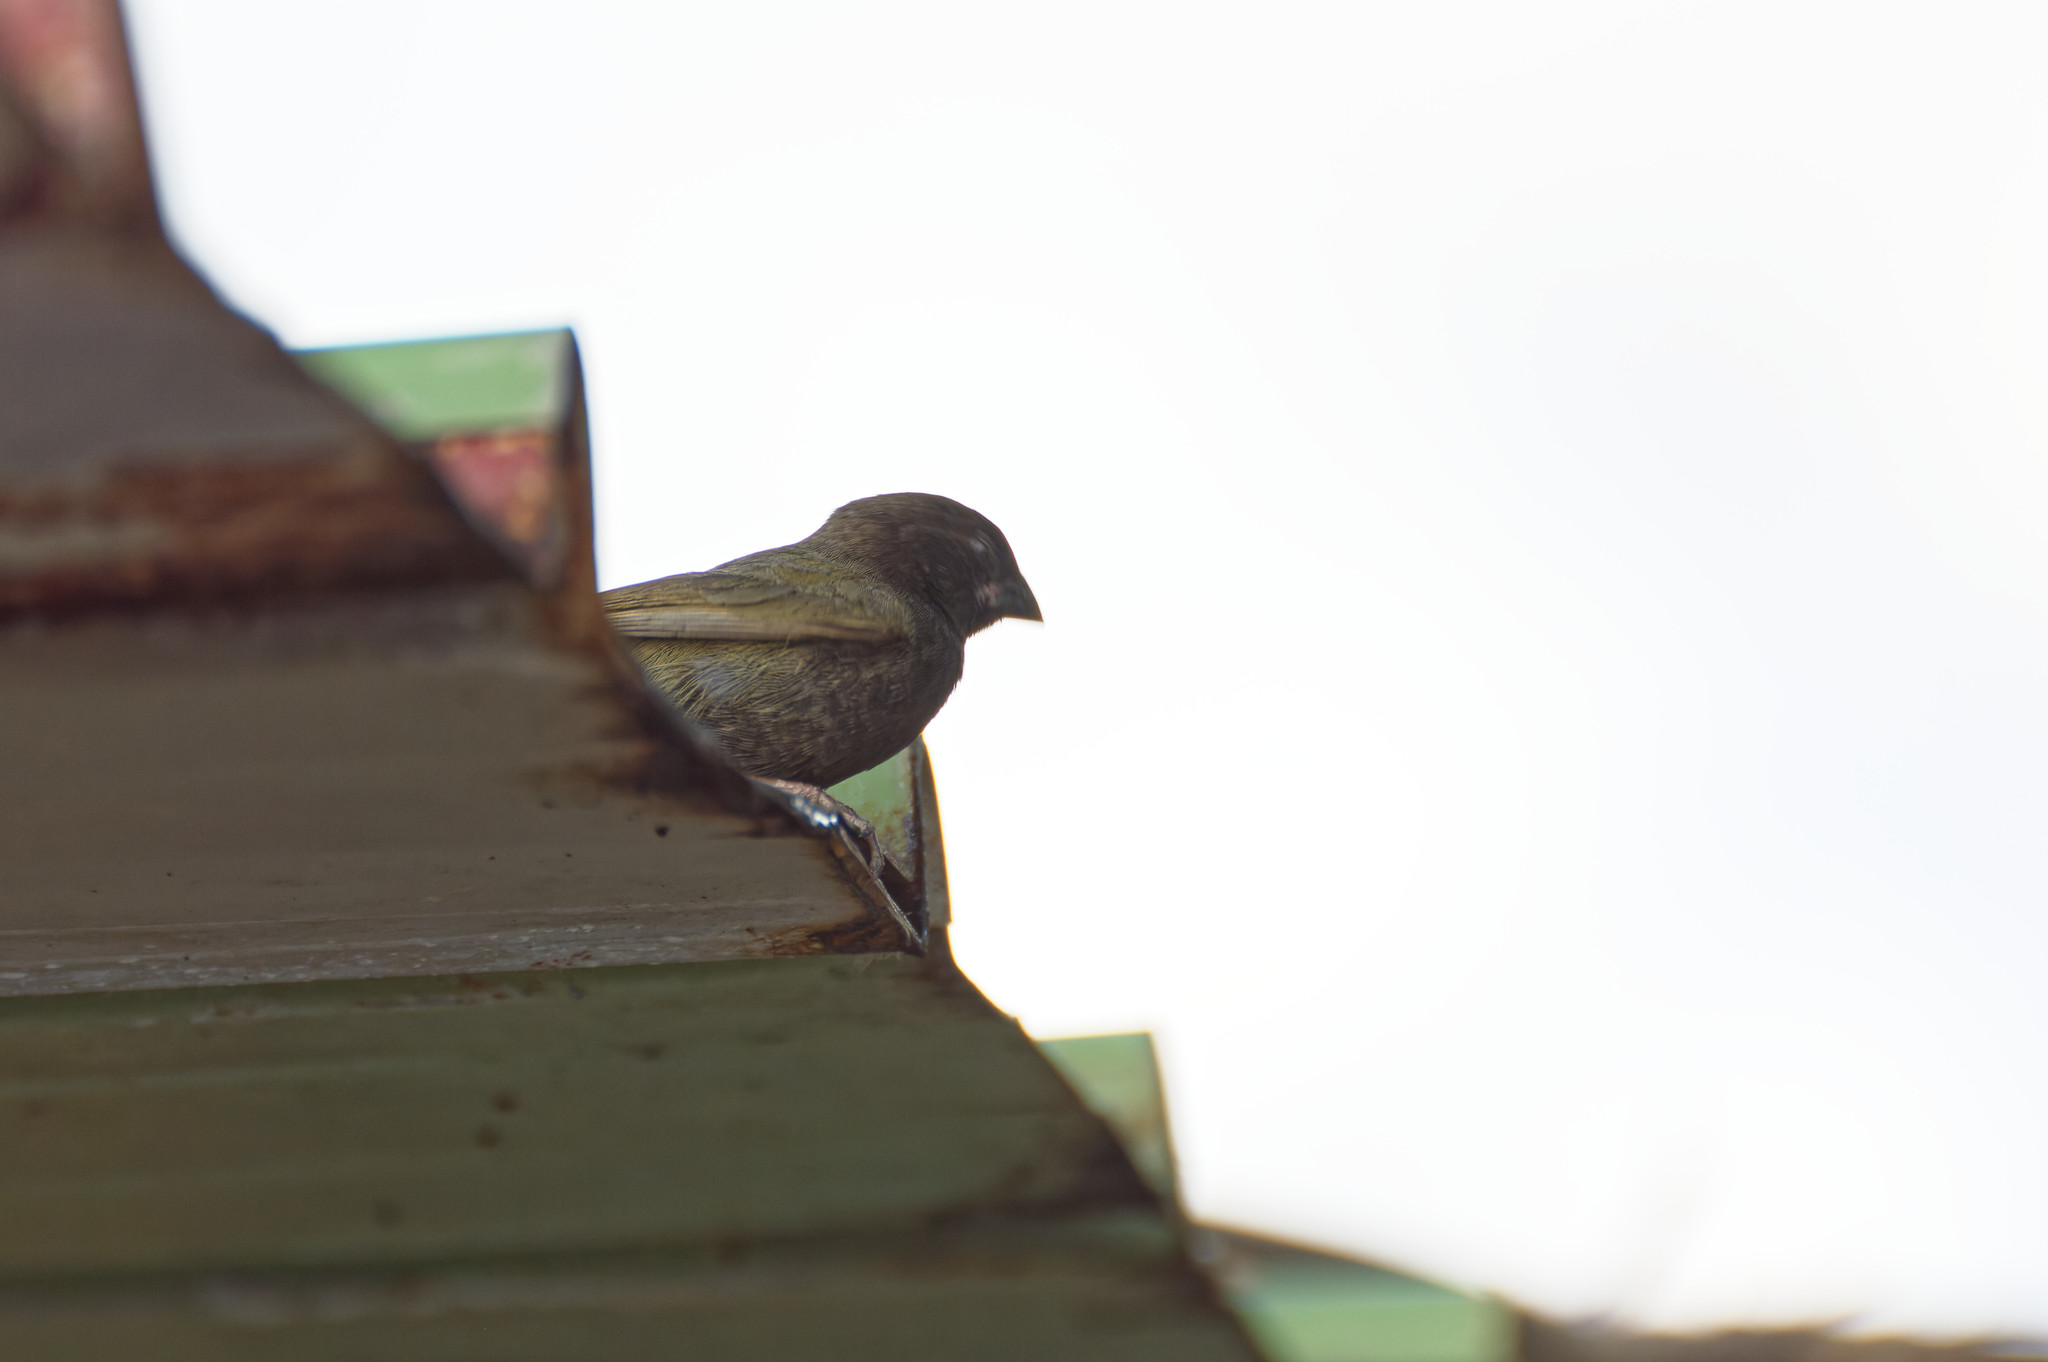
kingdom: Animalia
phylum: Chordata
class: Aves
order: Passeriformes
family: Thraupidae
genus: Melanospiza
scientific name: Melanospiza bicolor
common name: Black-faced grassquit
